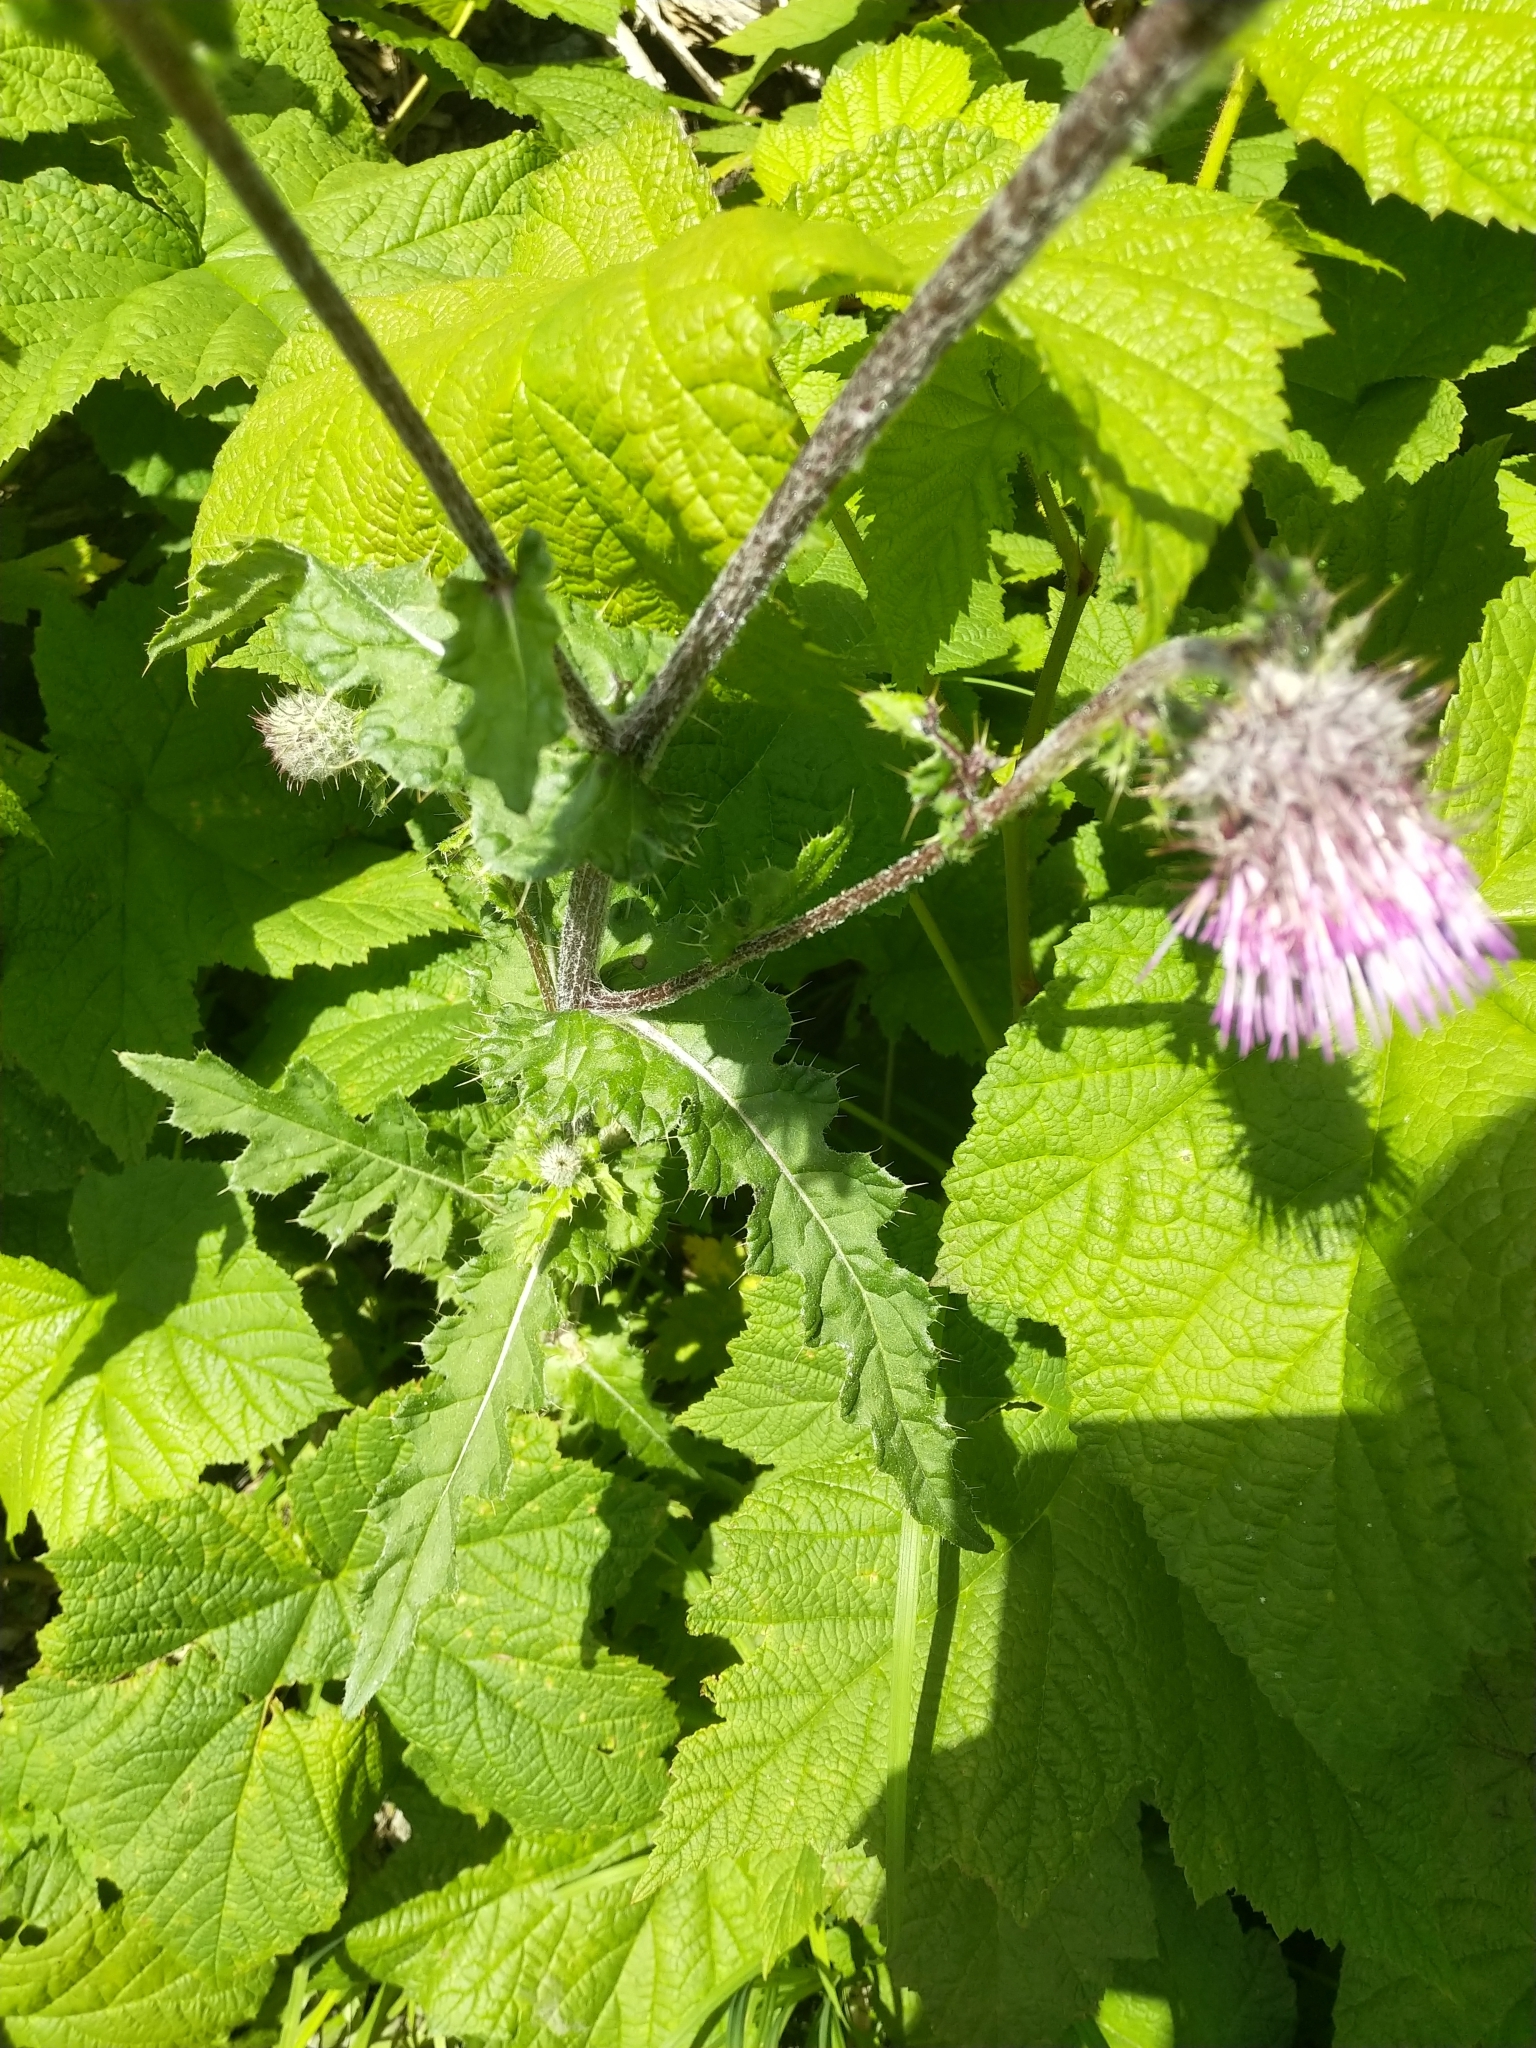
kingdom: Plantae
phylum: Tracheophyta
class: Magnoliopsida
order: Asterales
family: Asteraceae
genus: Cirsium
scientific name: Cirsium edule
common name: Indian thistle
